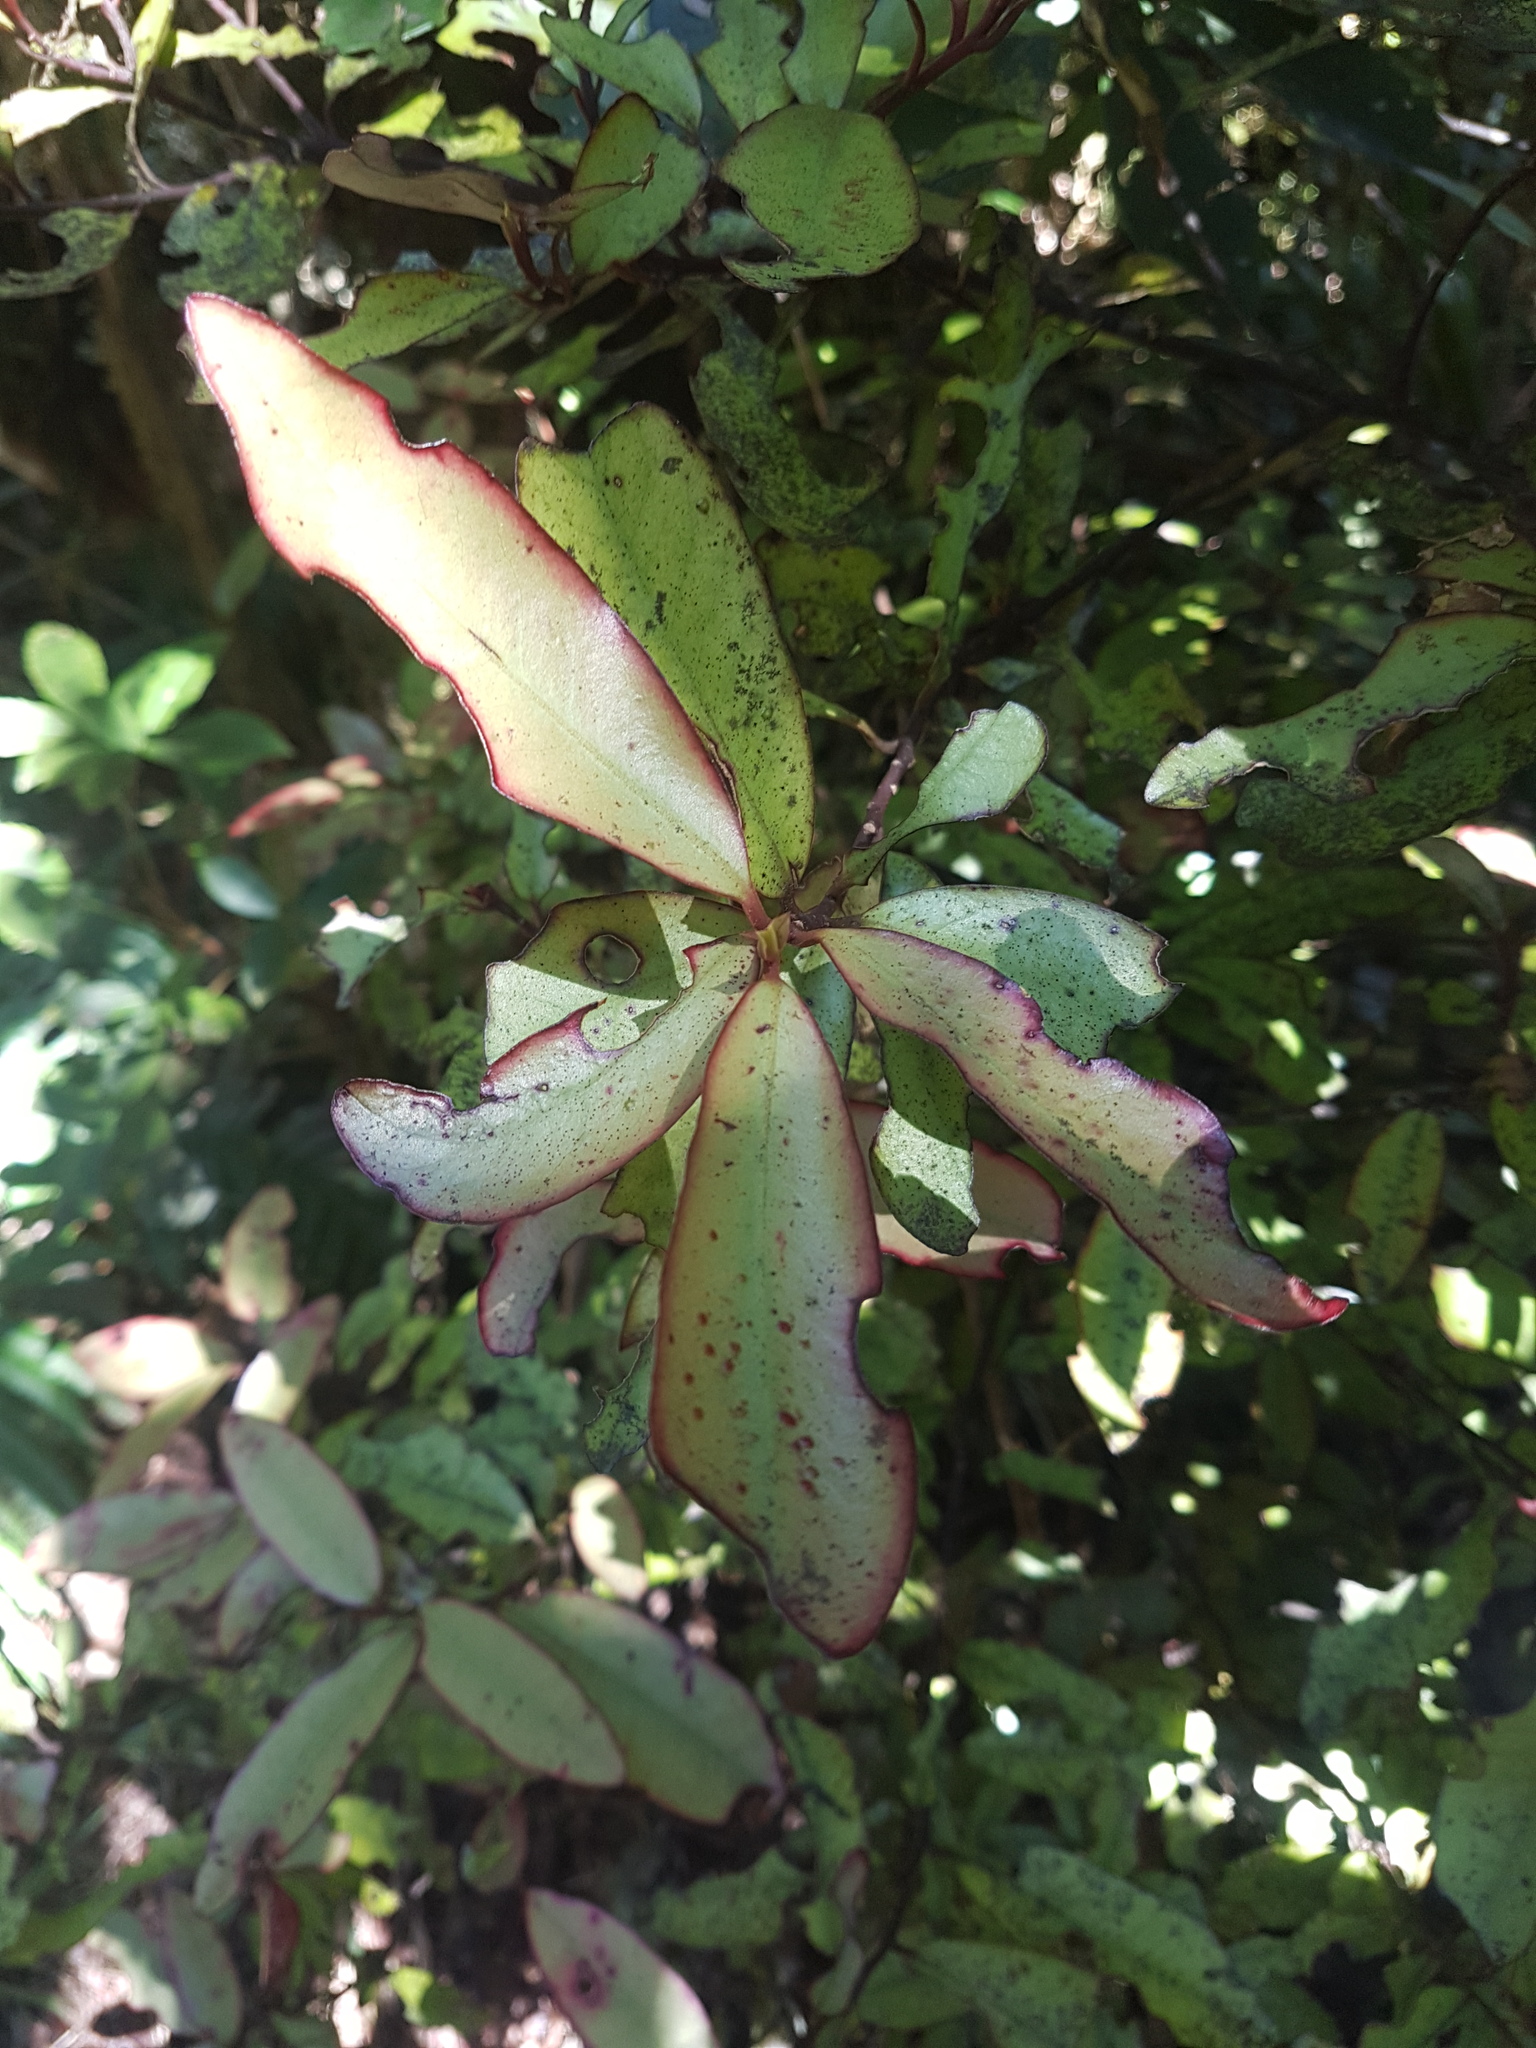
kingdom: Plantae
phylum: Tracheophyta
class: Magnoliopsida
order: Canellales
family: Winteraceae
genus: Pseudowintera
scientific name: Pseudowintera colorata
